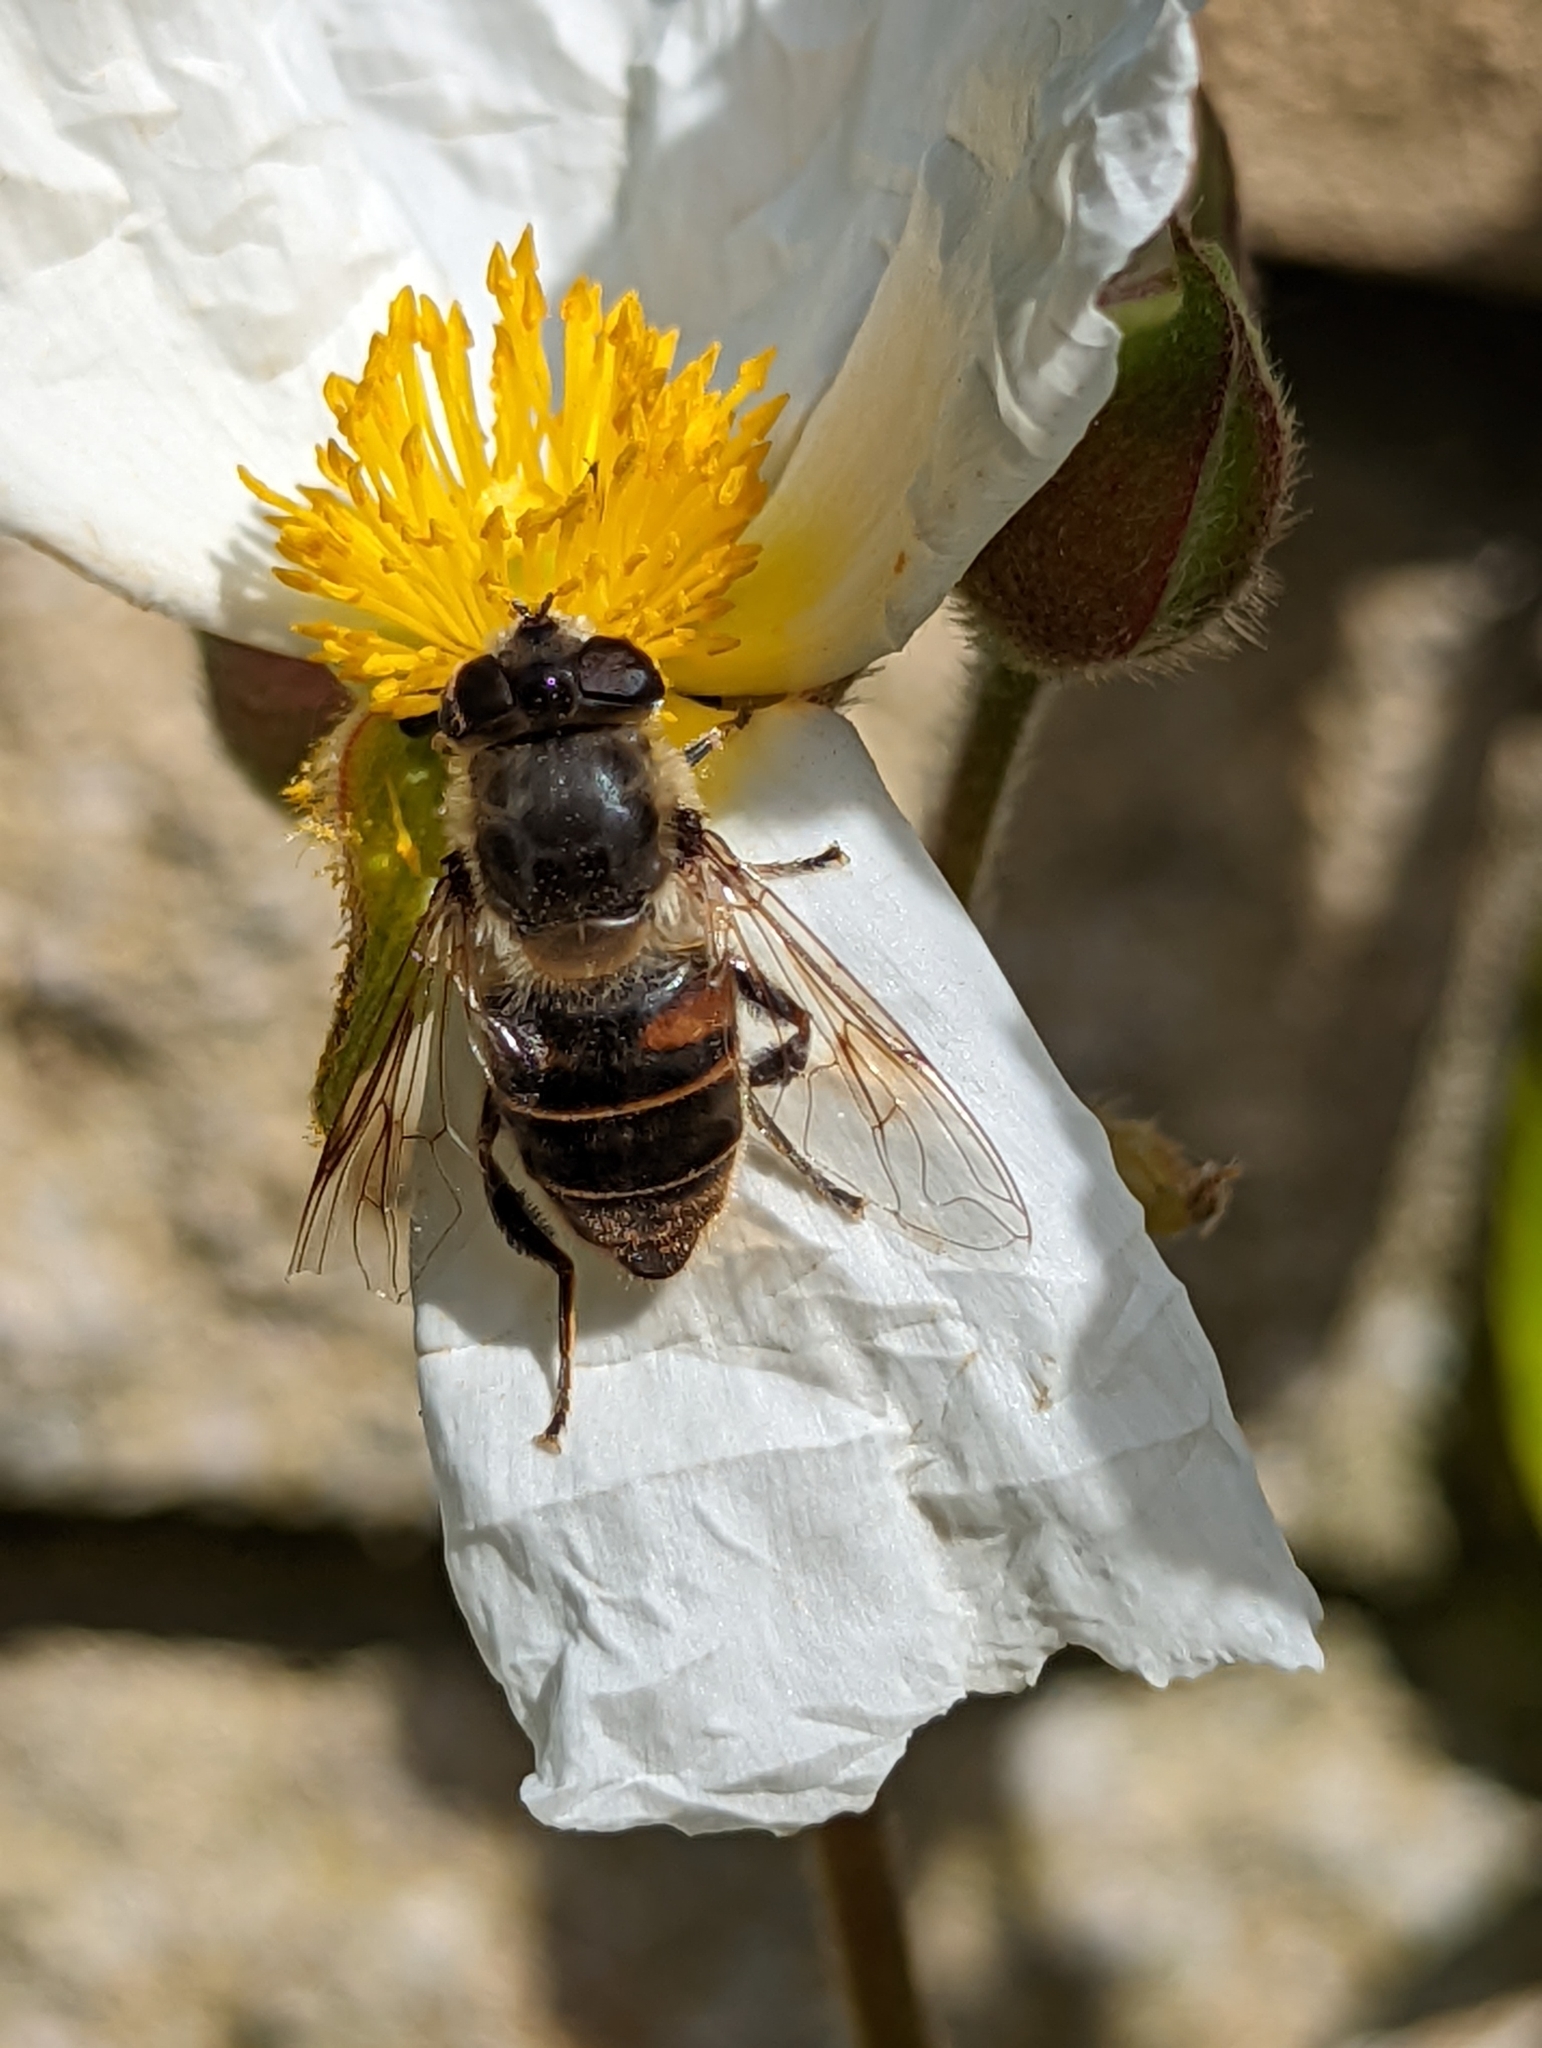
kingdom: Animalia
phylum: Arthropoda
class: Insecta
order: Diptera
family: Syrphidae
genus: Eristalis
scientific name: Eristalis tenax
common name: Drone fly
